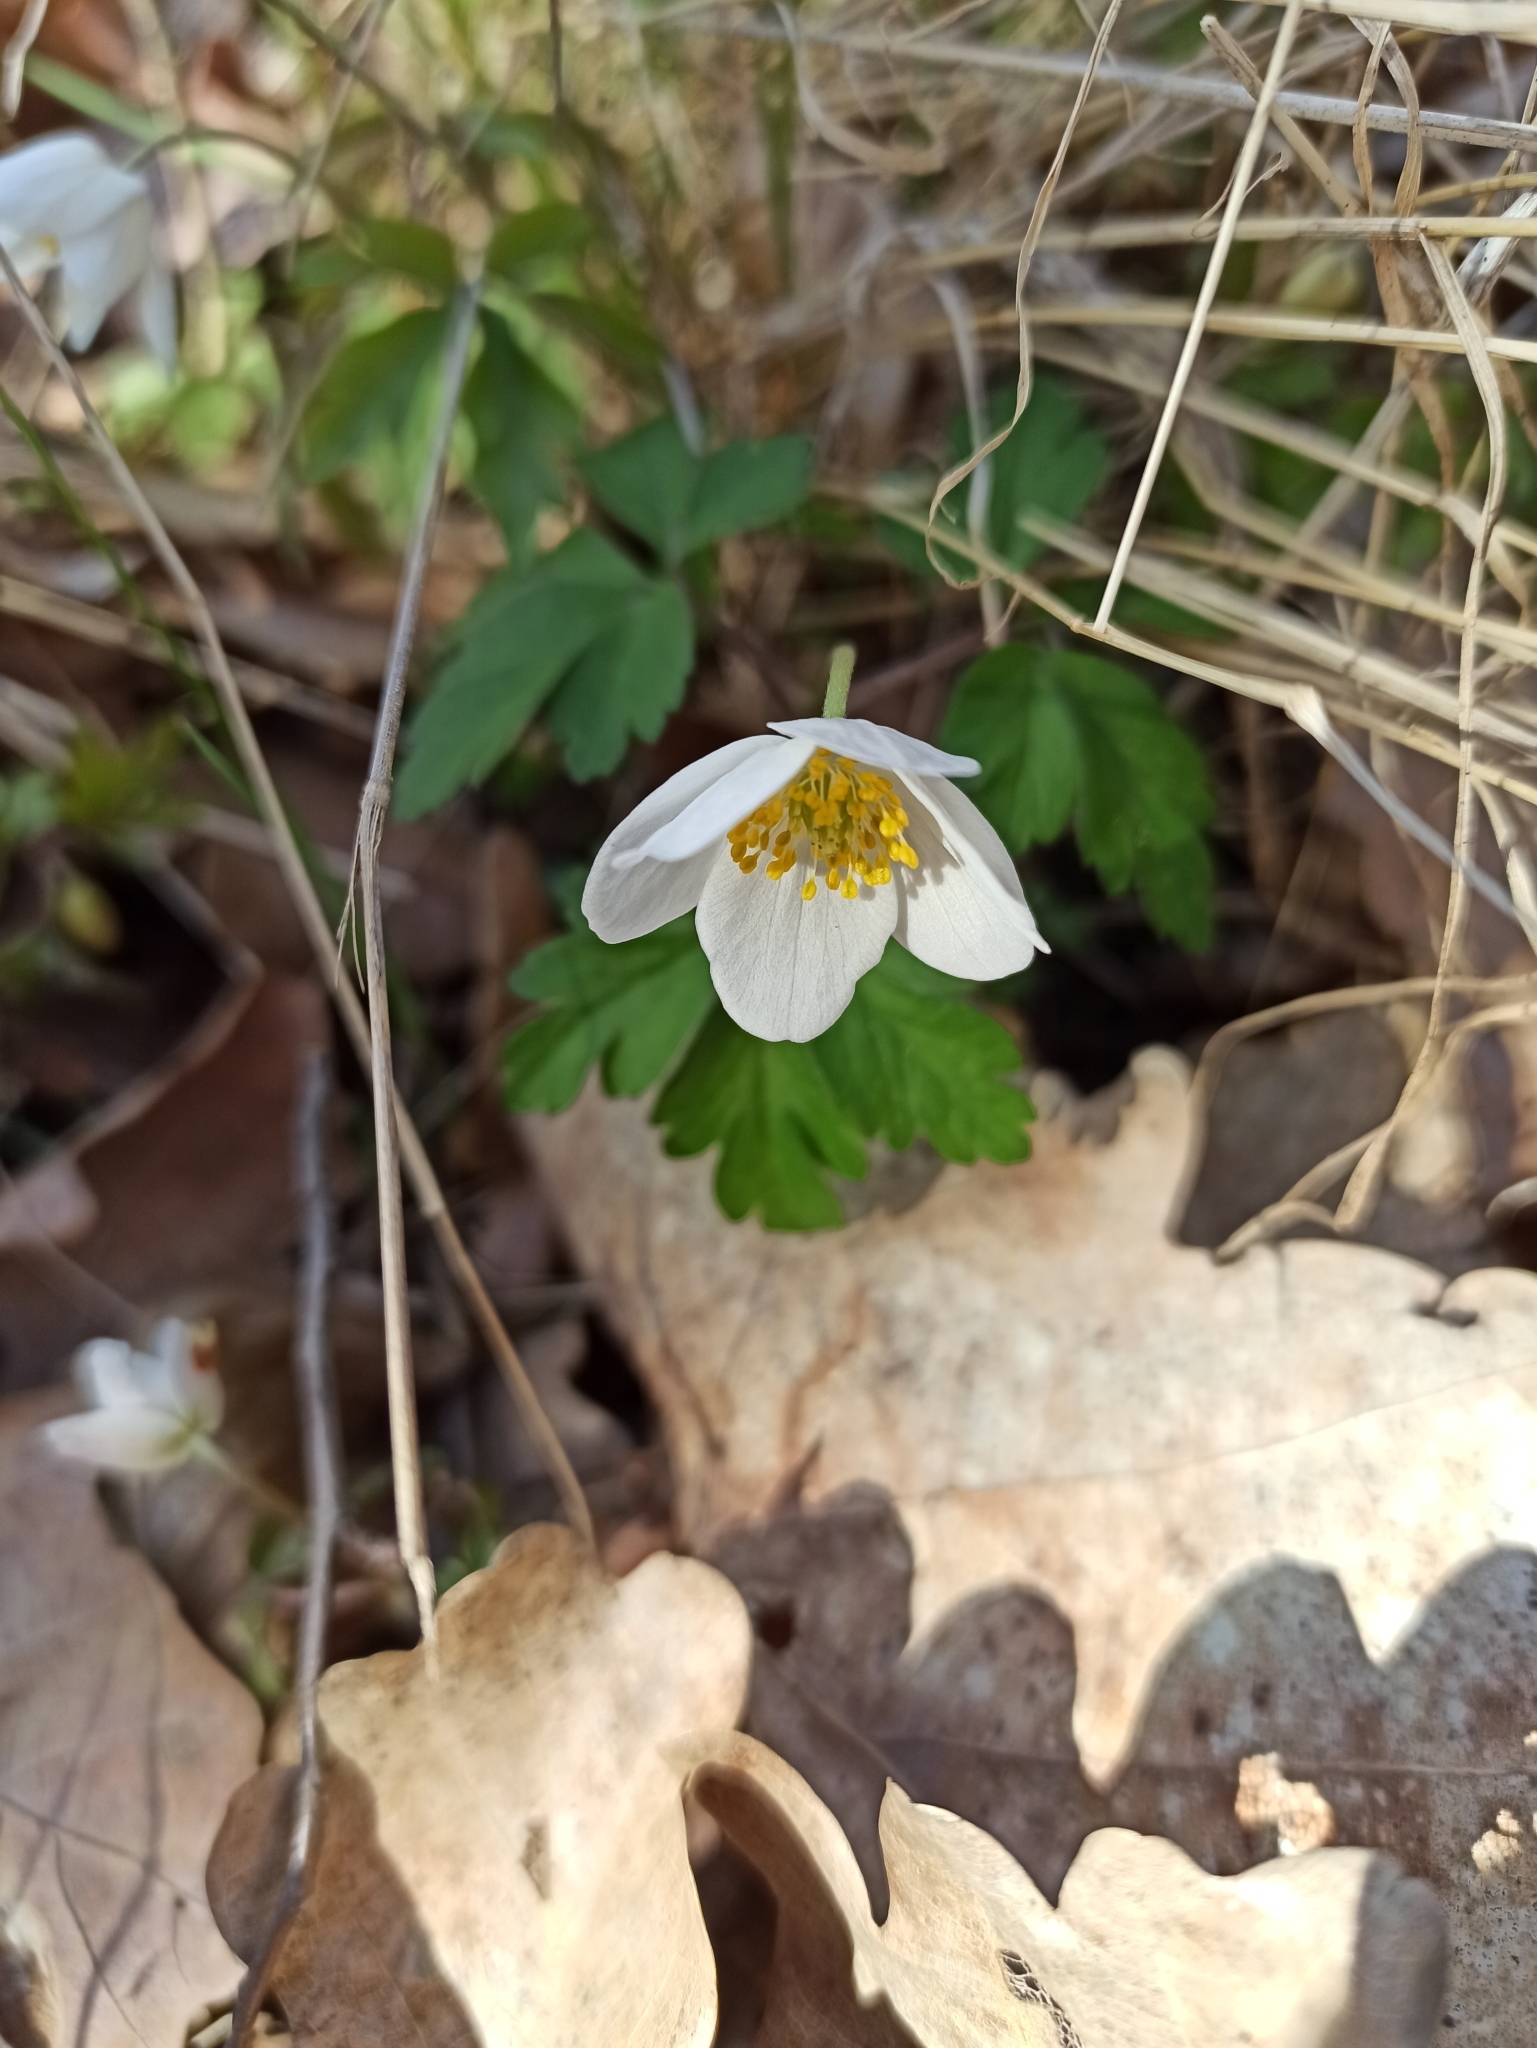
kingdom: Plantae
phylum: Tracheophyta
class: Magnoliopsida
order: Ranunculales
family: Ranunculaceae
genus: Anemone
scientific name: Anemone nemorosa
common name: Wood anemone
